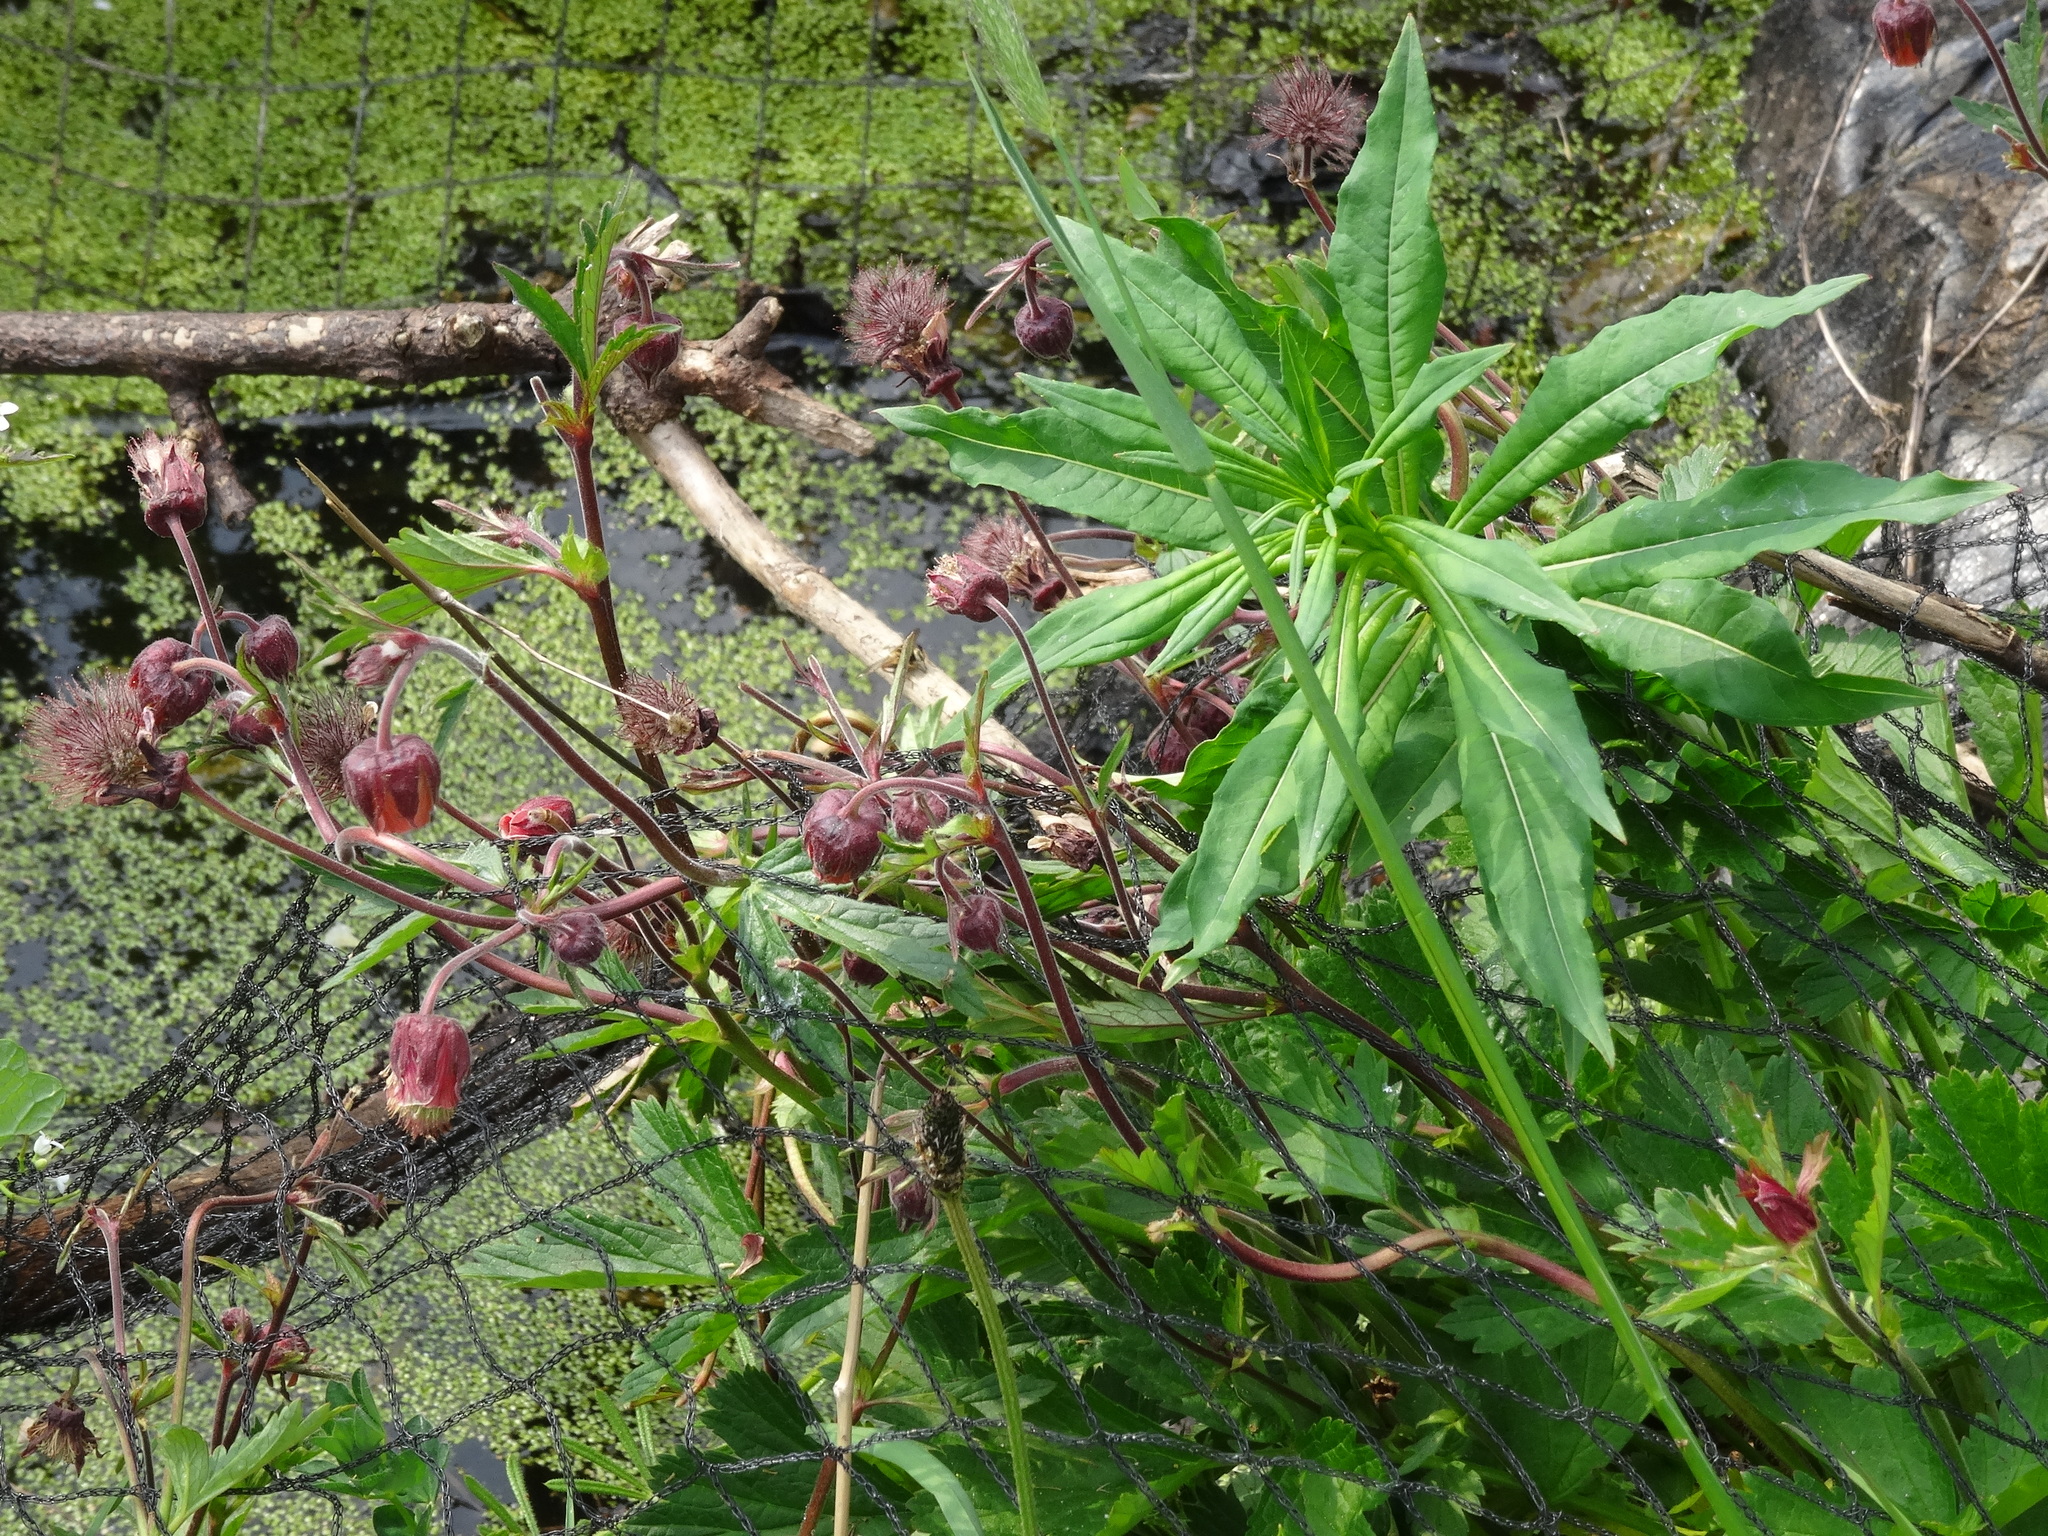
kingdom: Plantae
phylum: Tracheophyta
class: Magnoliopsida
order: Rosales
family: Rosaceae
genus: Geum
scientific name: Geum rivale
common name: Water avens
